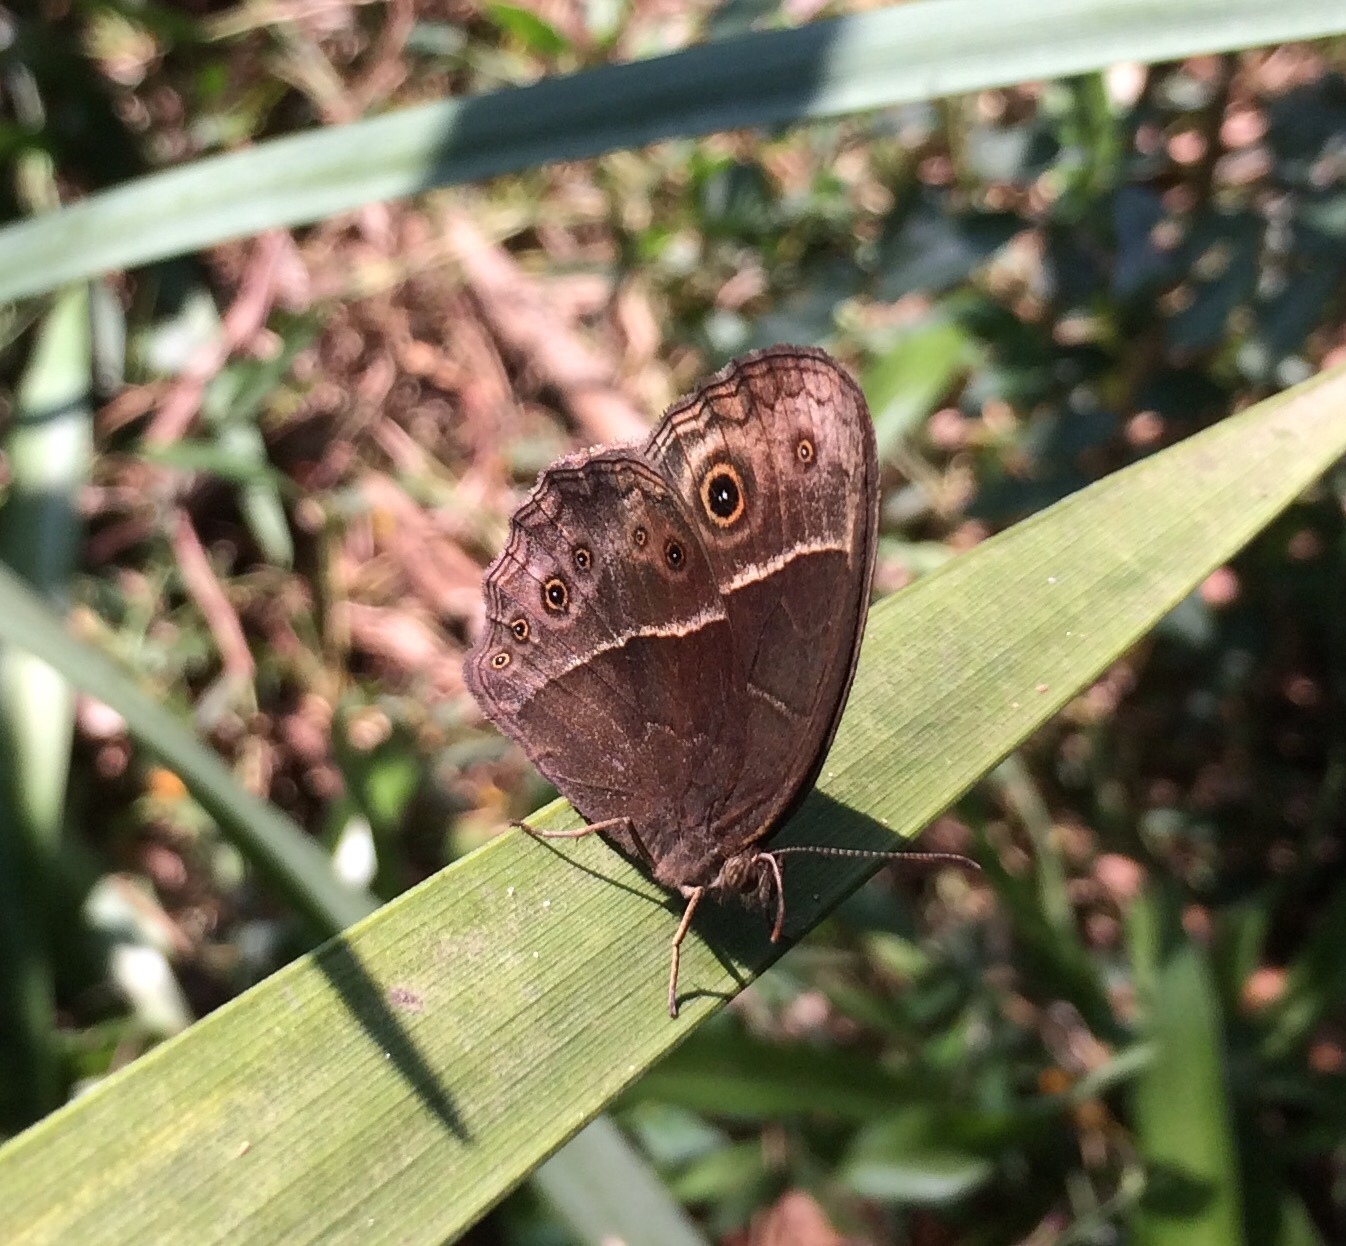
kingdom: Animalia
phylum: Arthropoda
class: Insecta
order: Lepidoptera
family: Nymphalidae
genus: Mycalesis
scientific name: Mycalesis rhacotis
